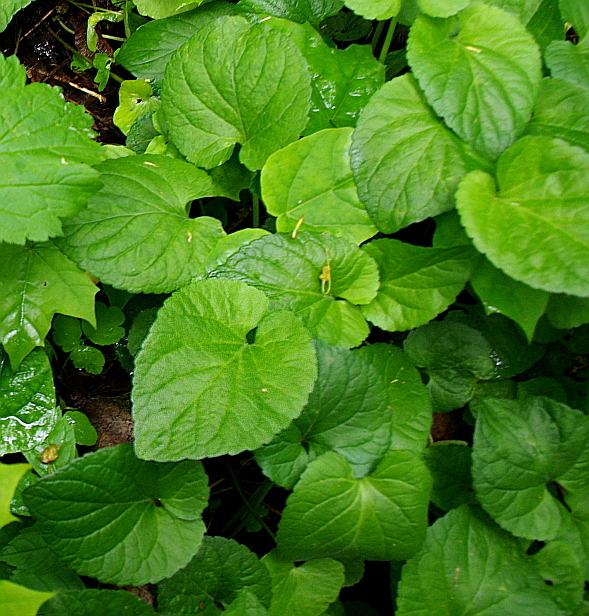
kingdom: Plantae
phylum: Tracheophyta
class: Magnoliopsida
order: Malpighiales
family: Violaceae
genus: Viola
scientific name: Viola odorata
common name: Sweet violet
